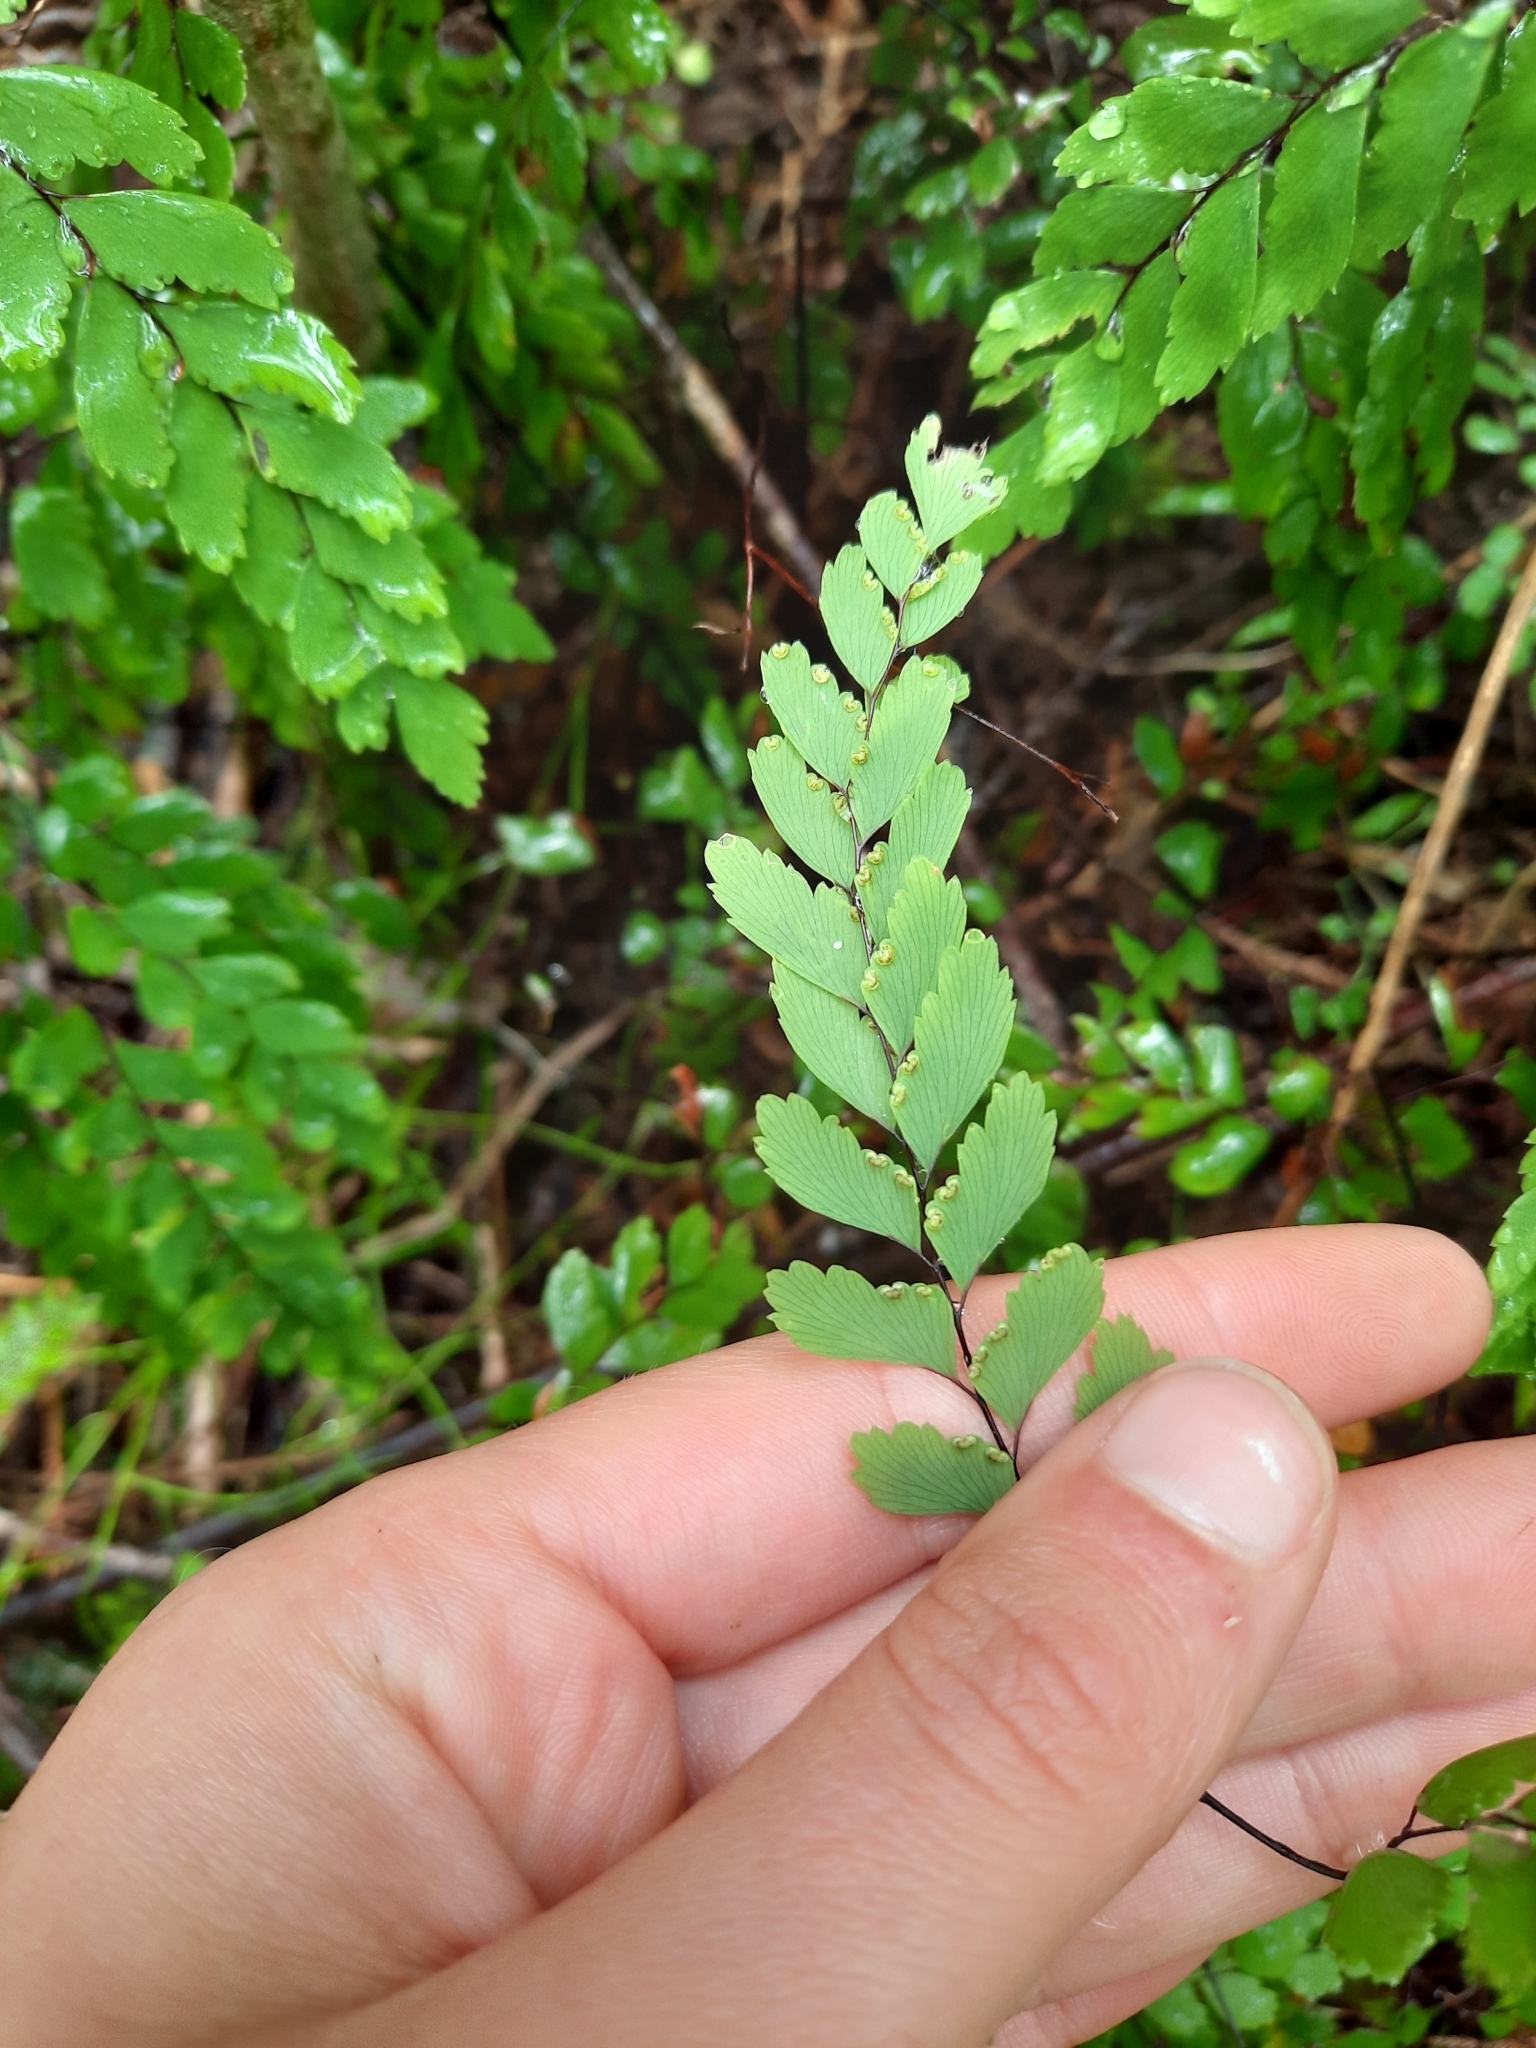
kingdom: Plantae
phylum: Tracheophyta
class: Polypodiopsida
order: Polypodiales
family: Pteridaceae
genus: Adiantum
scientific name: Adiantum cunninghamii
